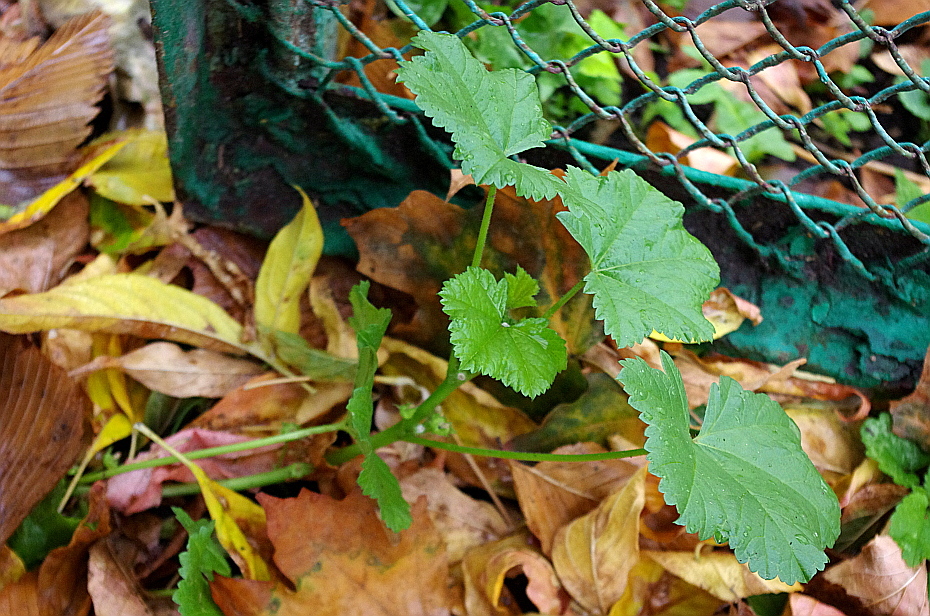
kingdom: Plantae
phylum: Tracheophyta
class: Magnoliopsida
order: Malvales
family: Malvaceae
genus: Malva
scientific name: Malva pusilla
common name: Small mallow
